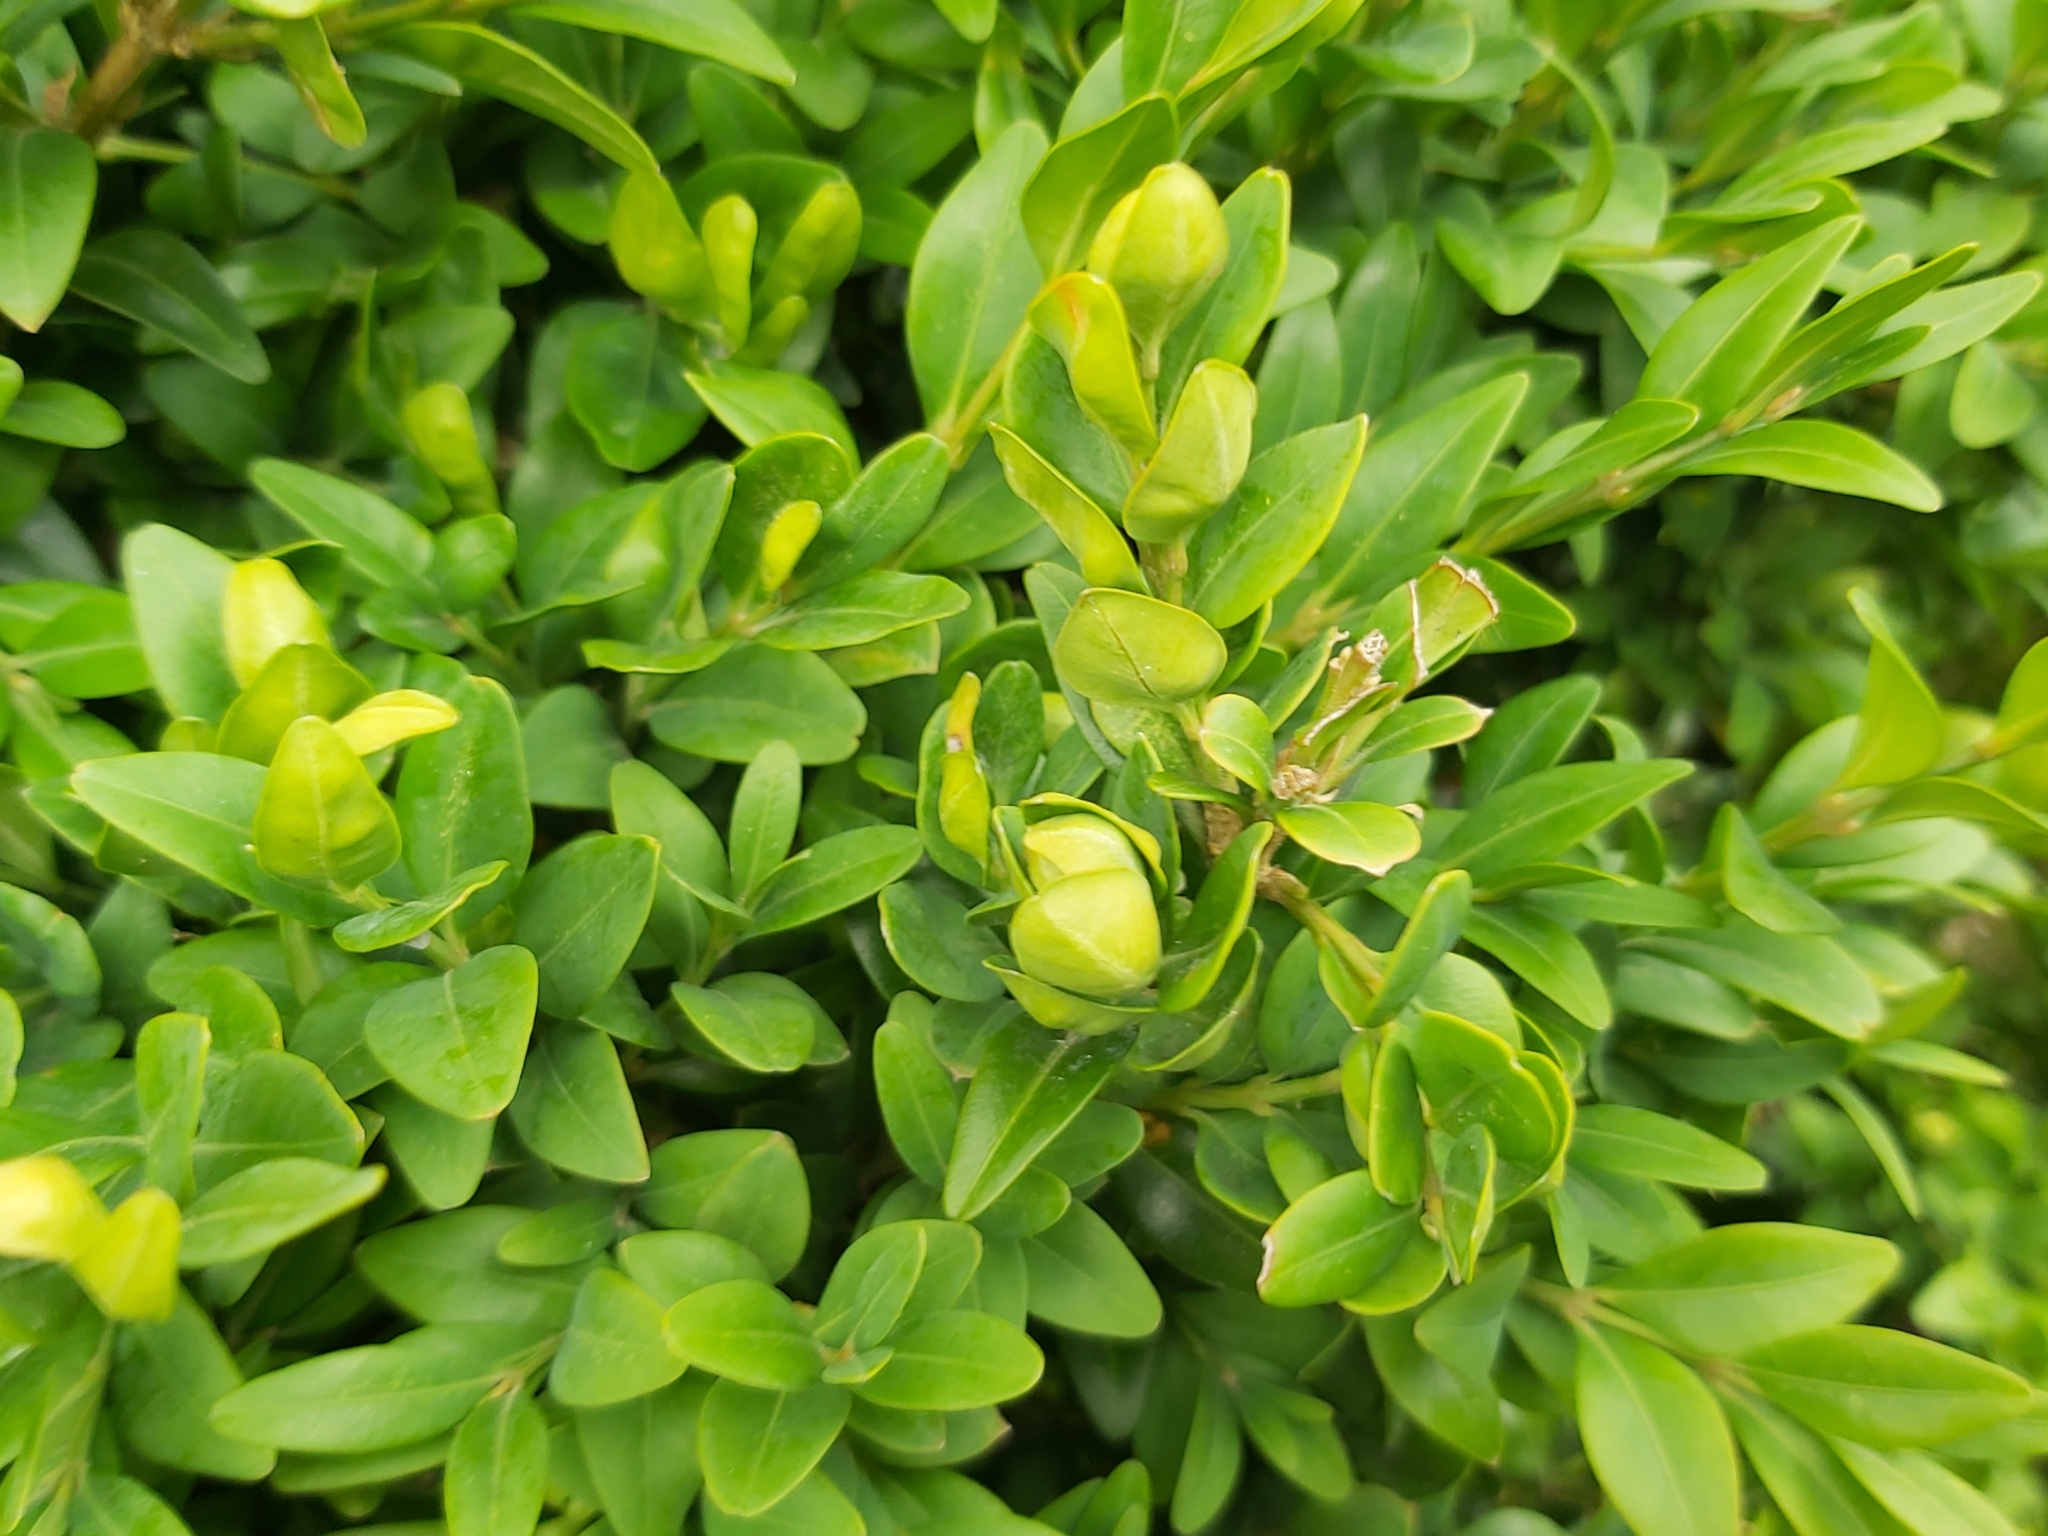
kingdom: Animalia
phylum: Arthropoda
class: Insecta
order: Hemiptera
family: Psyllidae
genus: Psylla
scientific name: Psylla buxi
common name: Boxwood psyllid
